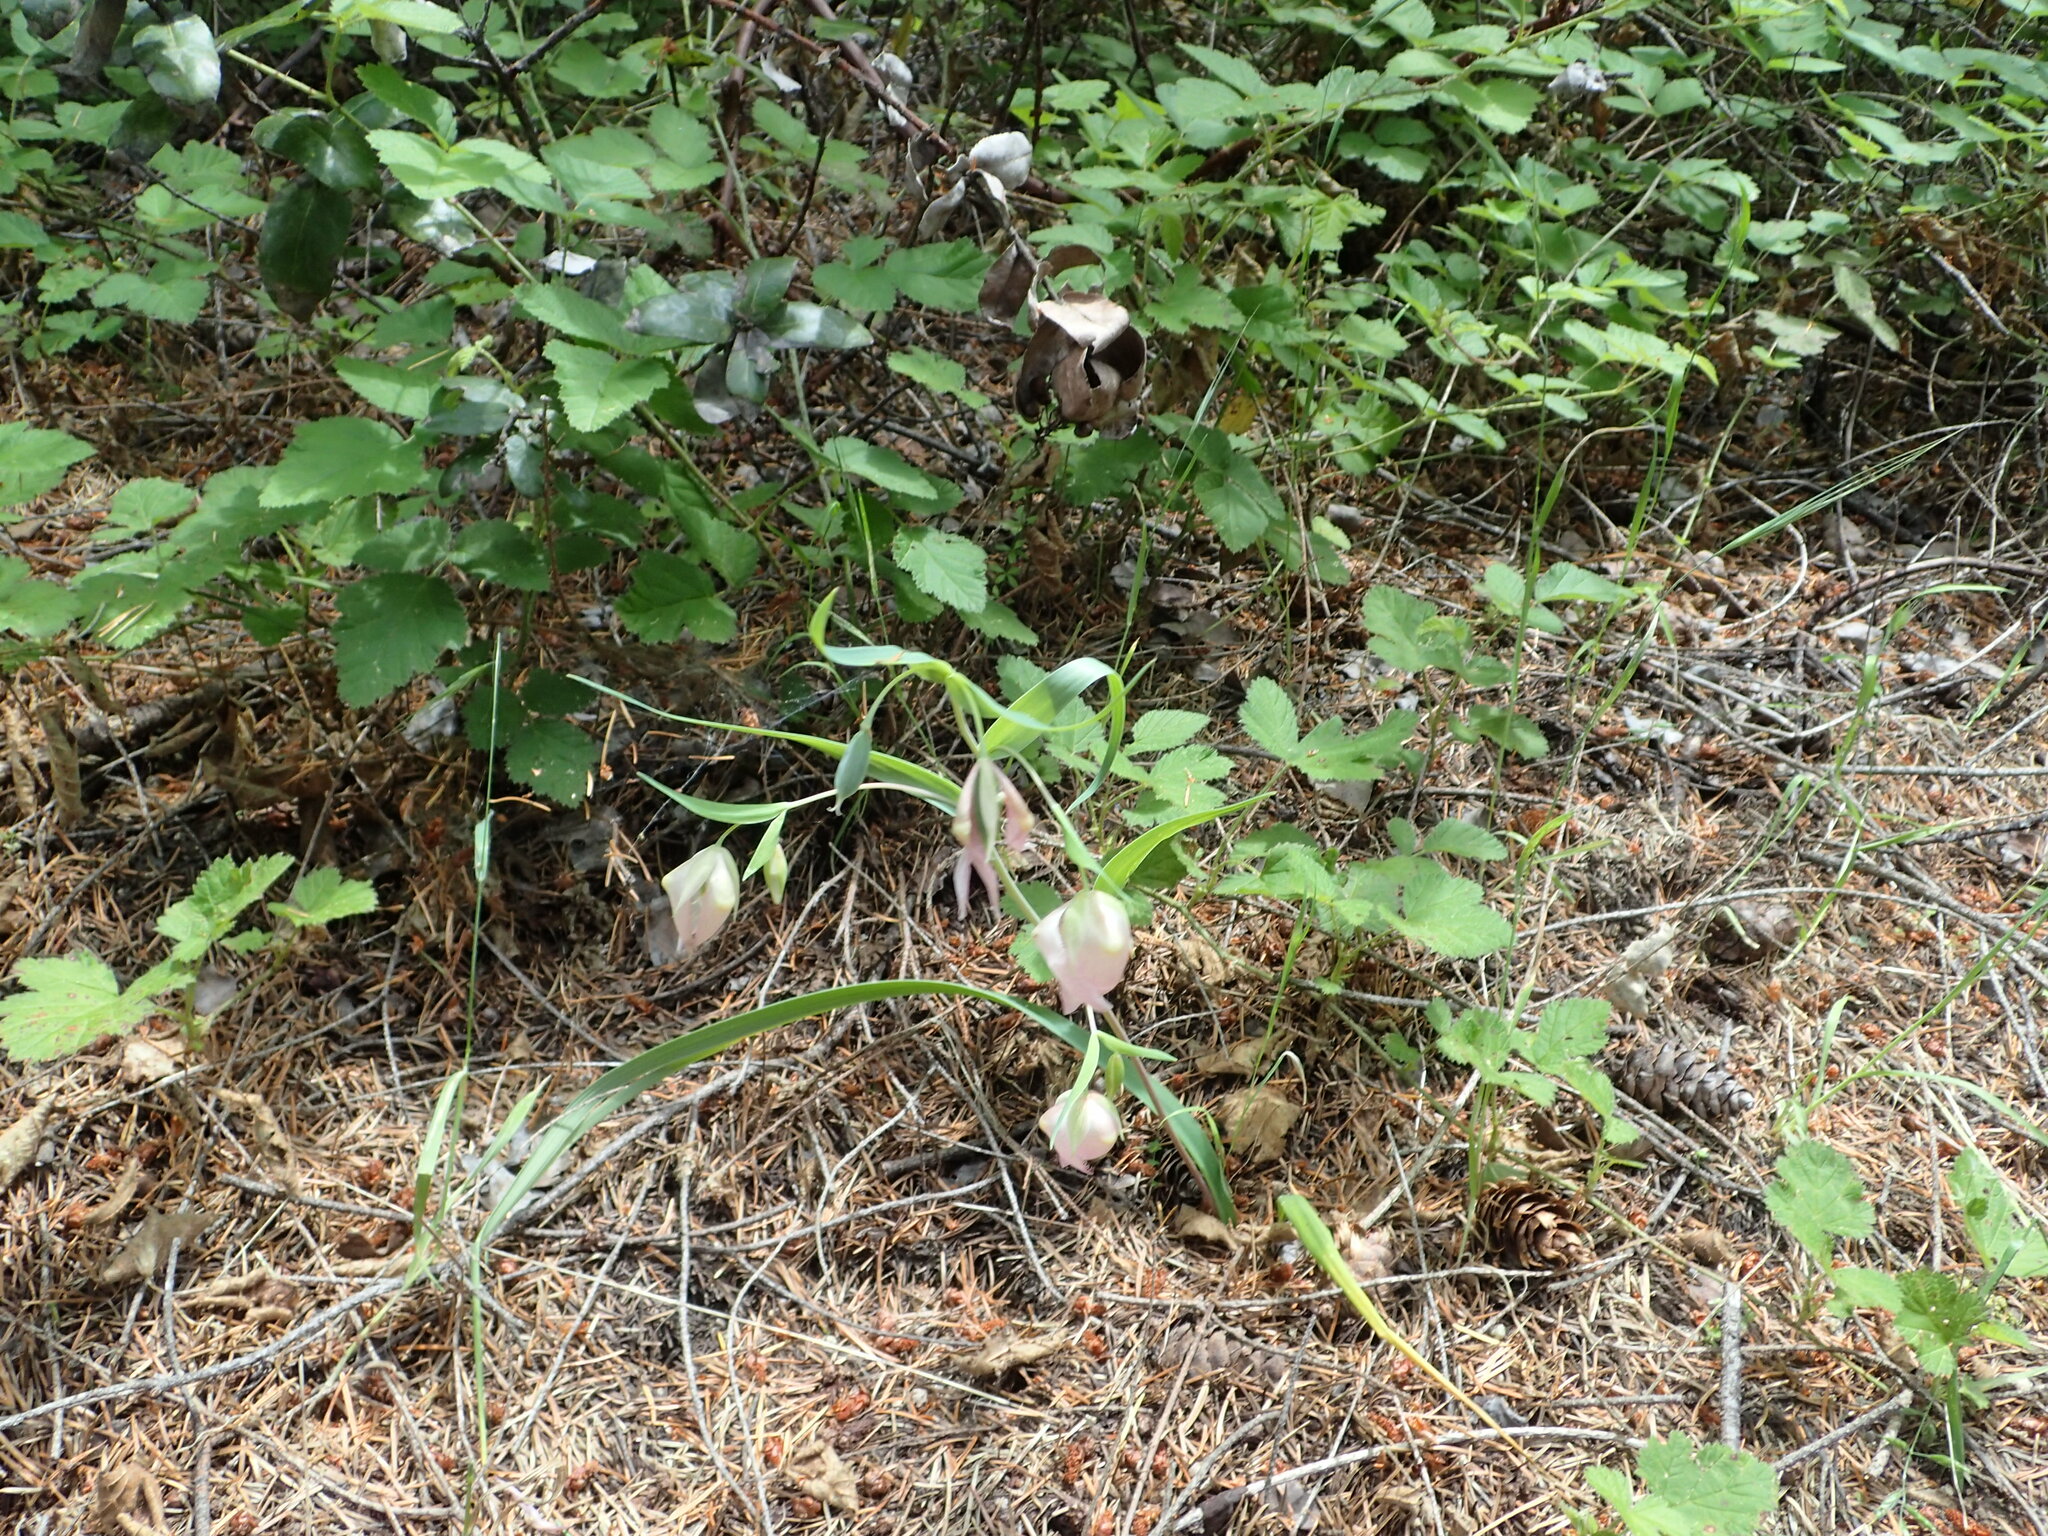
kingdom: Plantae
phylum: Tracheophyta
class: Liliopsida
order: Liliales
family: Liliaceae
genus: Calochortus
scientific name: Calochortus albus
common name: Fairy-lantern
